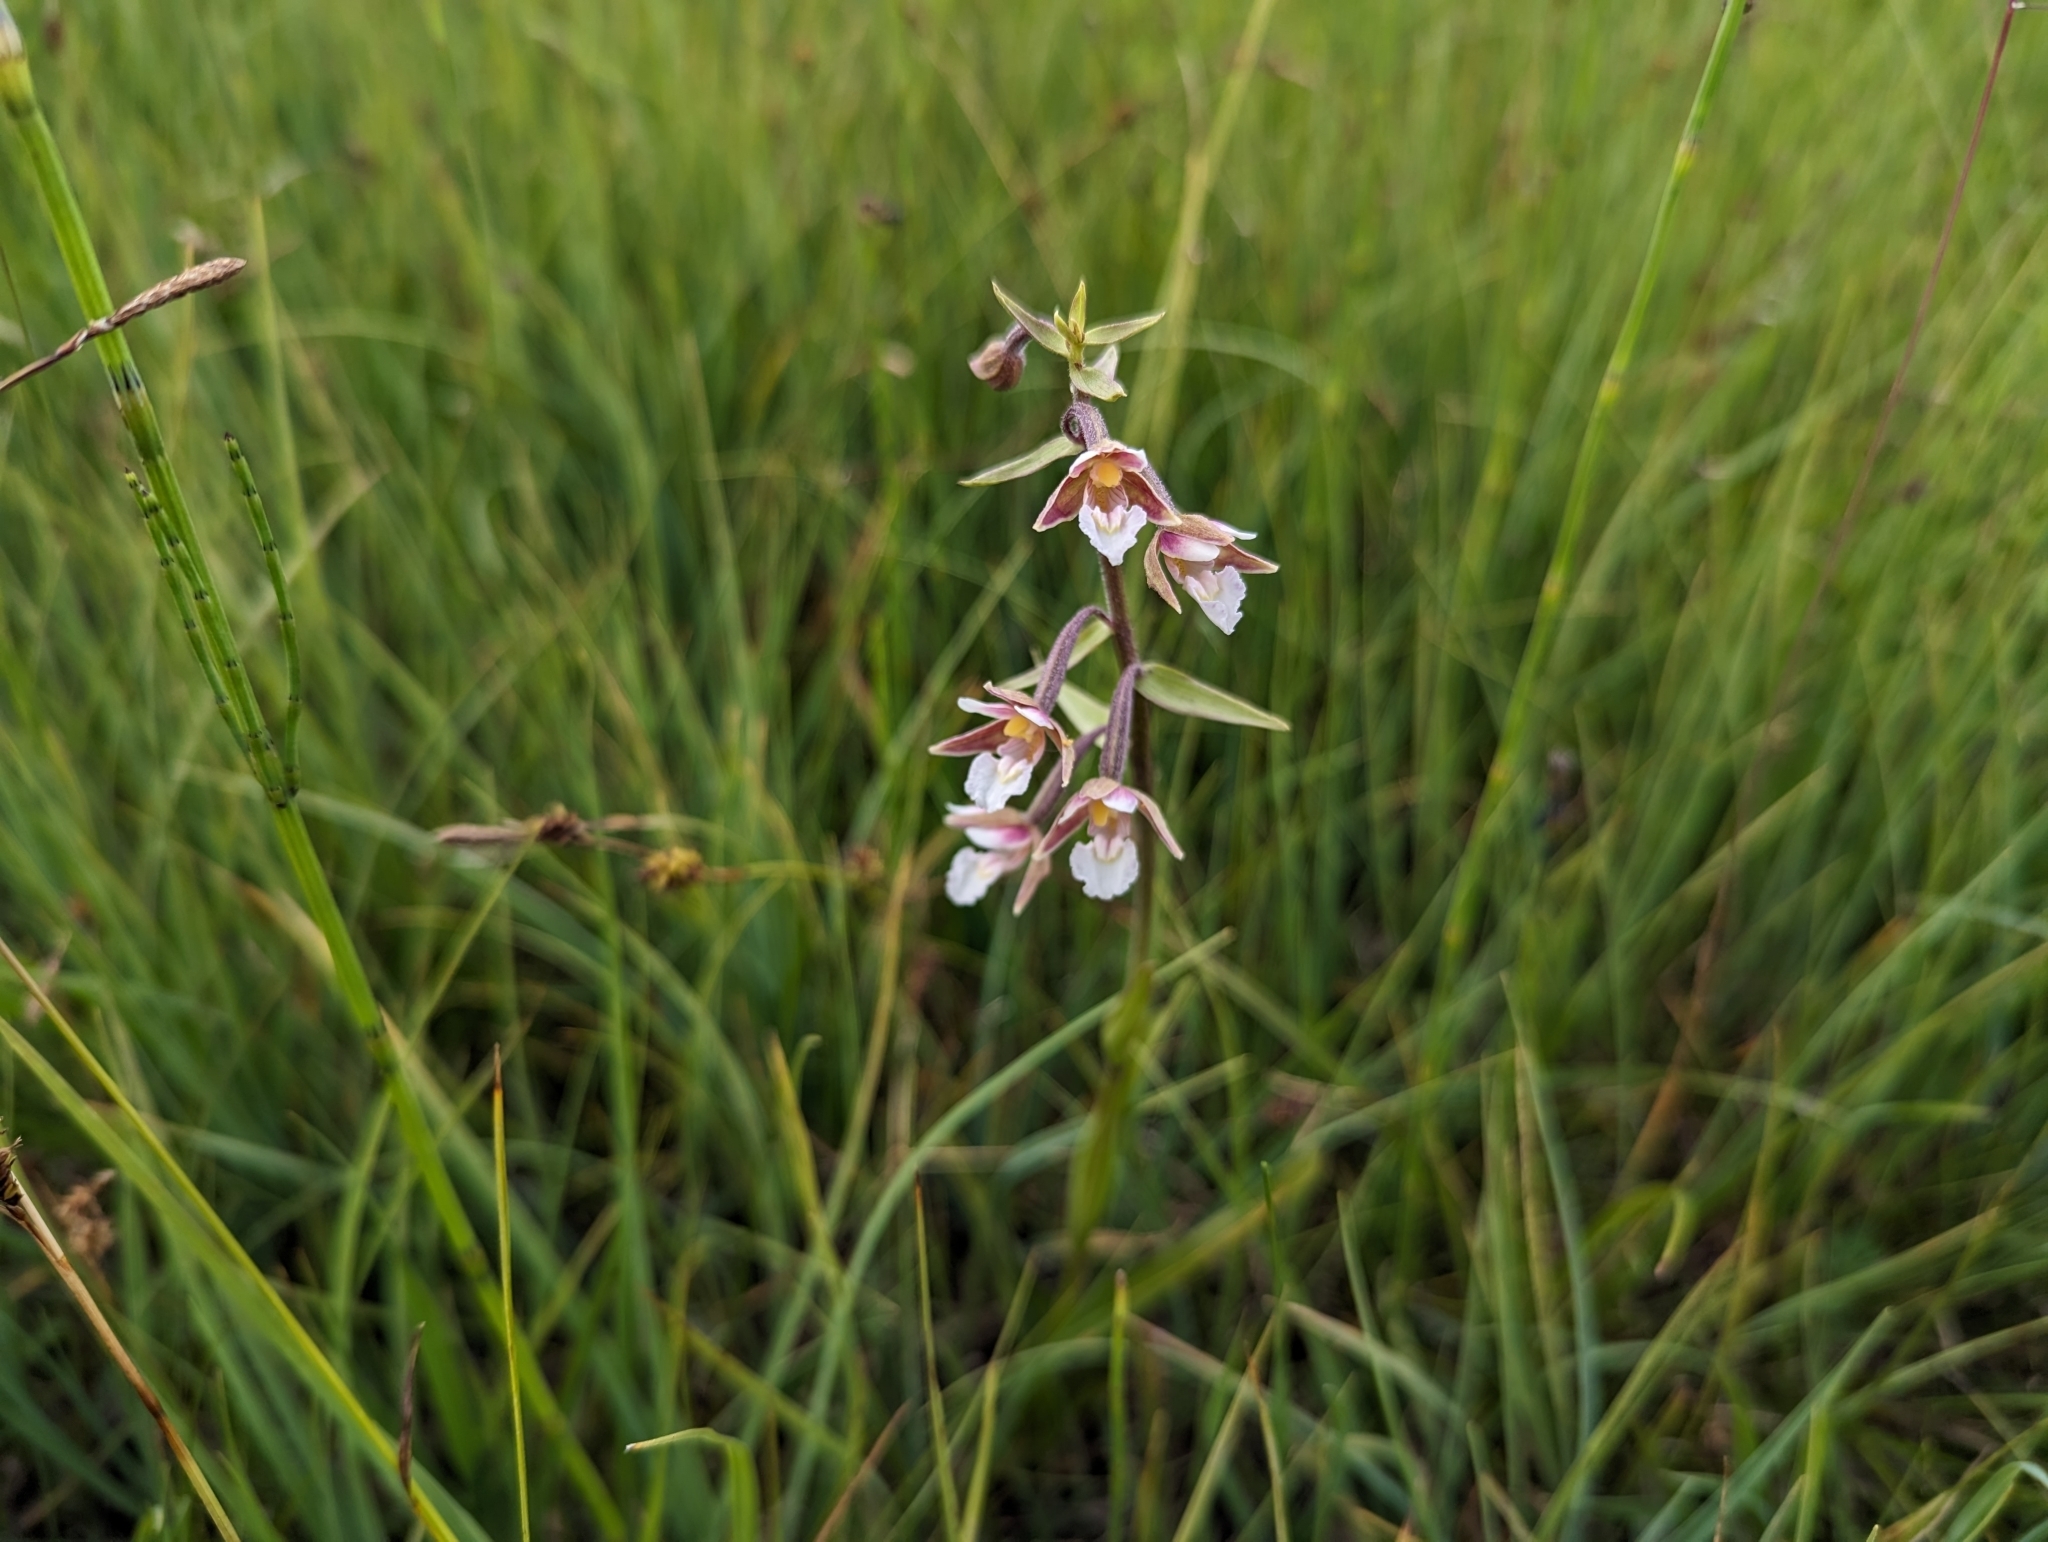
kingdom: Plantae
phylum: Tracheophyta
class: Liliopsida
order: Asparagales
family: Orchidaceae
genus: Epipactis
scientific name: Epipactis palustris
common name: Marsh helleborine
